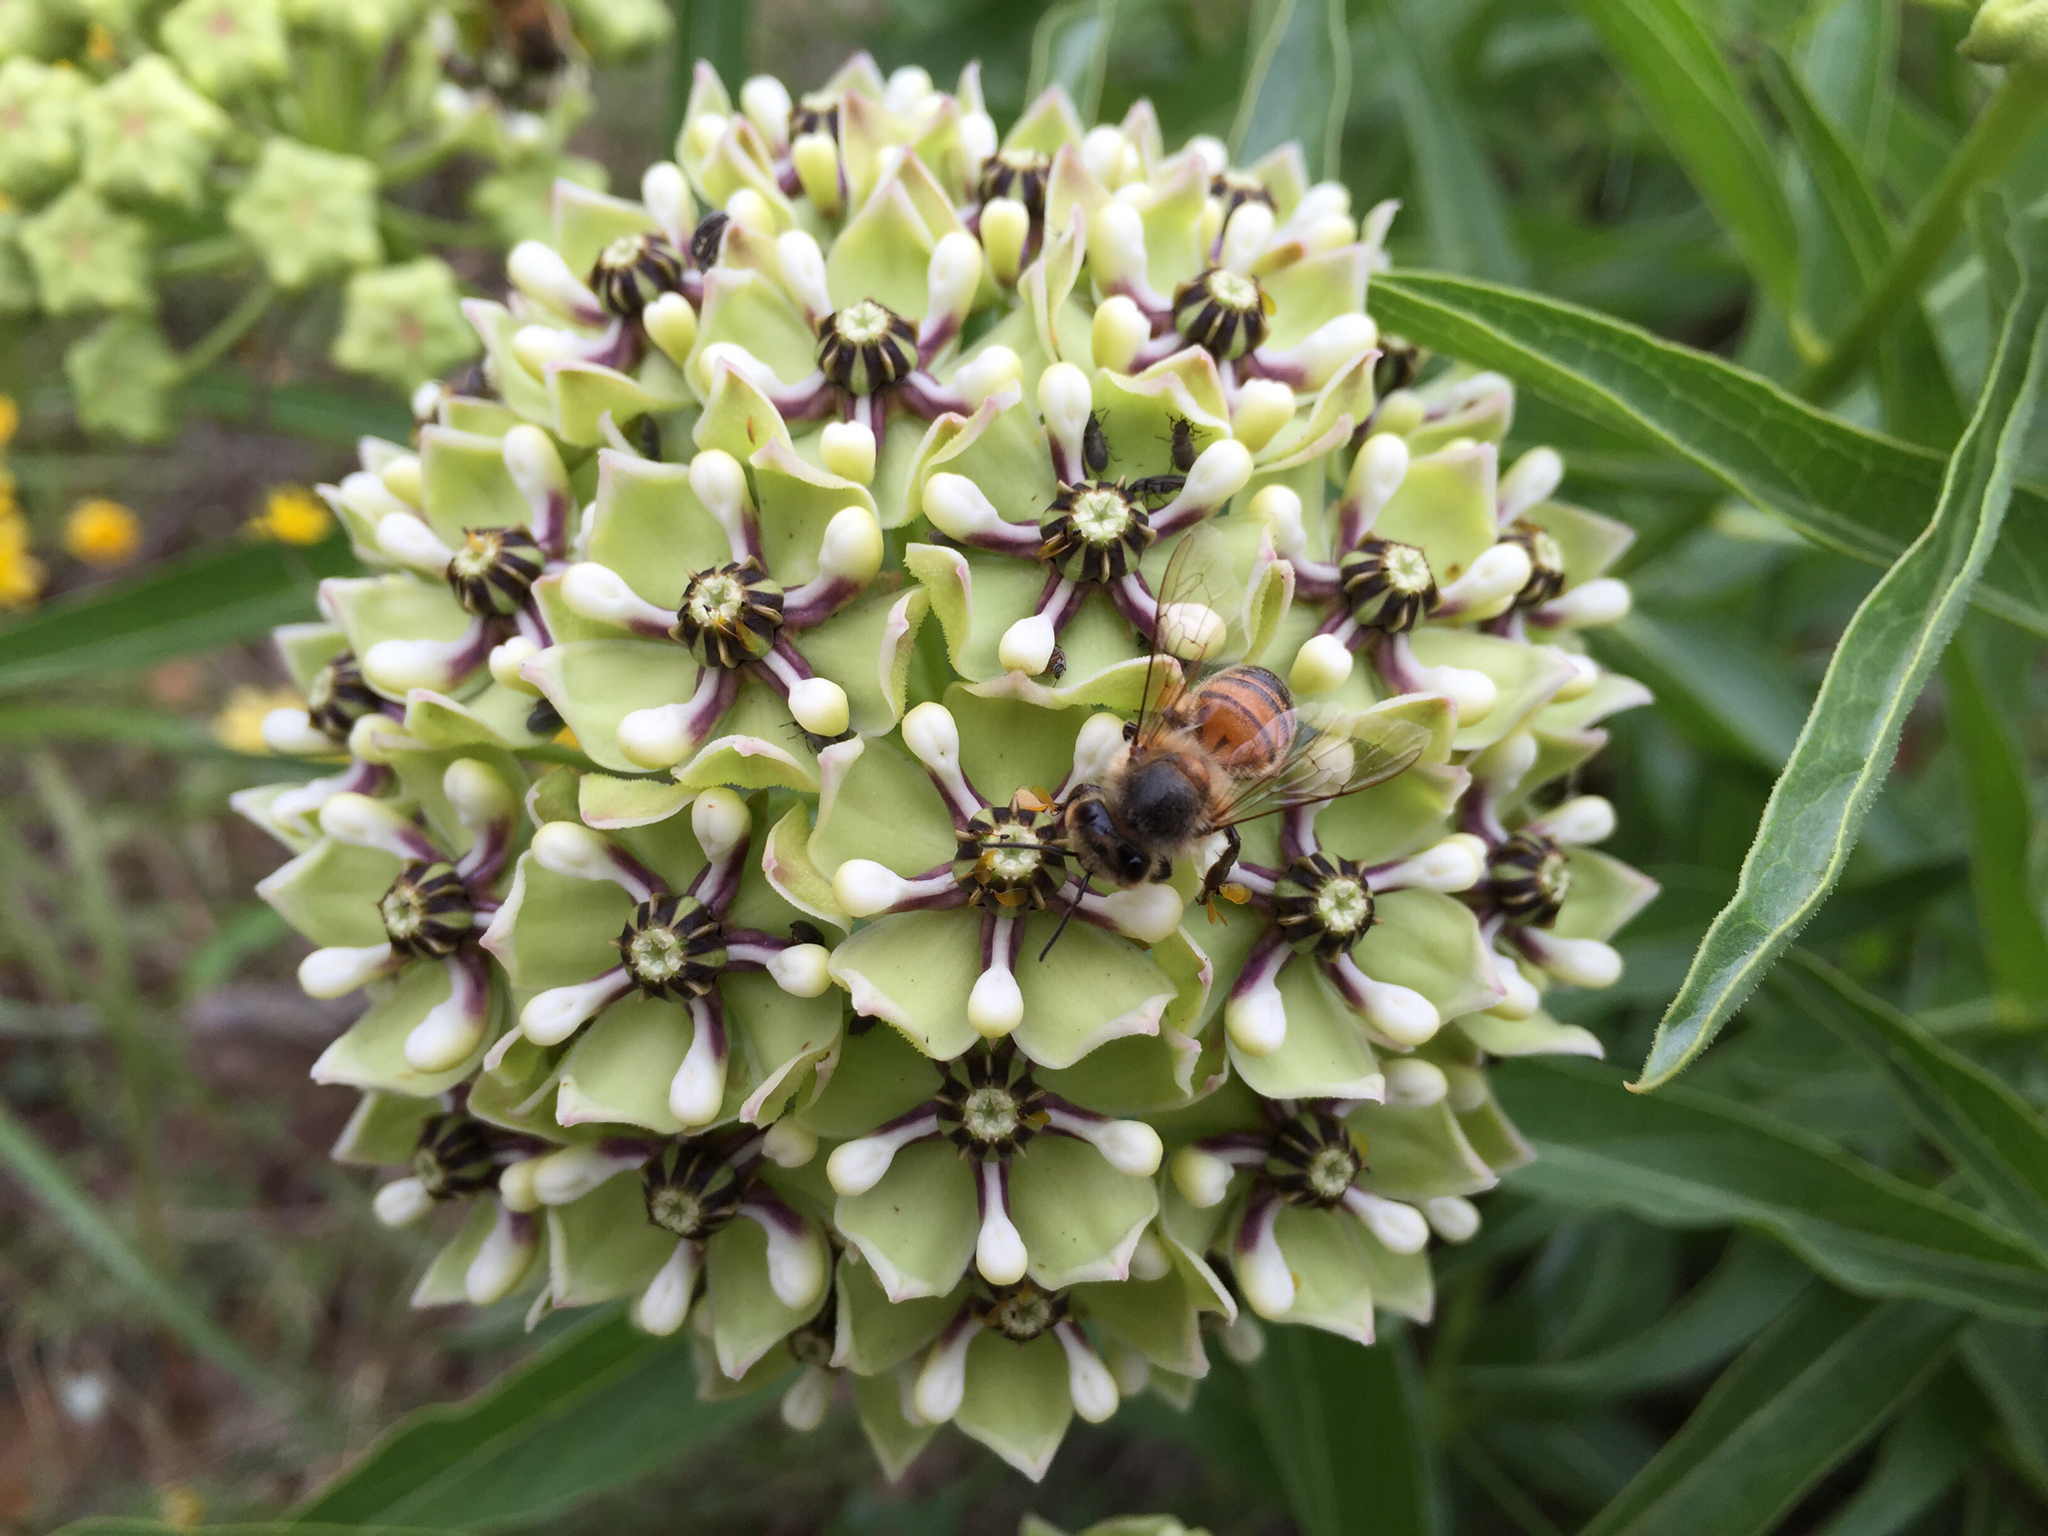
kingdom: Animalia
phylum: Arthropoda
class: Insecta
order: Hymenoptera
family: Apidae
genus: Apis
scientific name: Apis mellifera
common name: Honey bee
